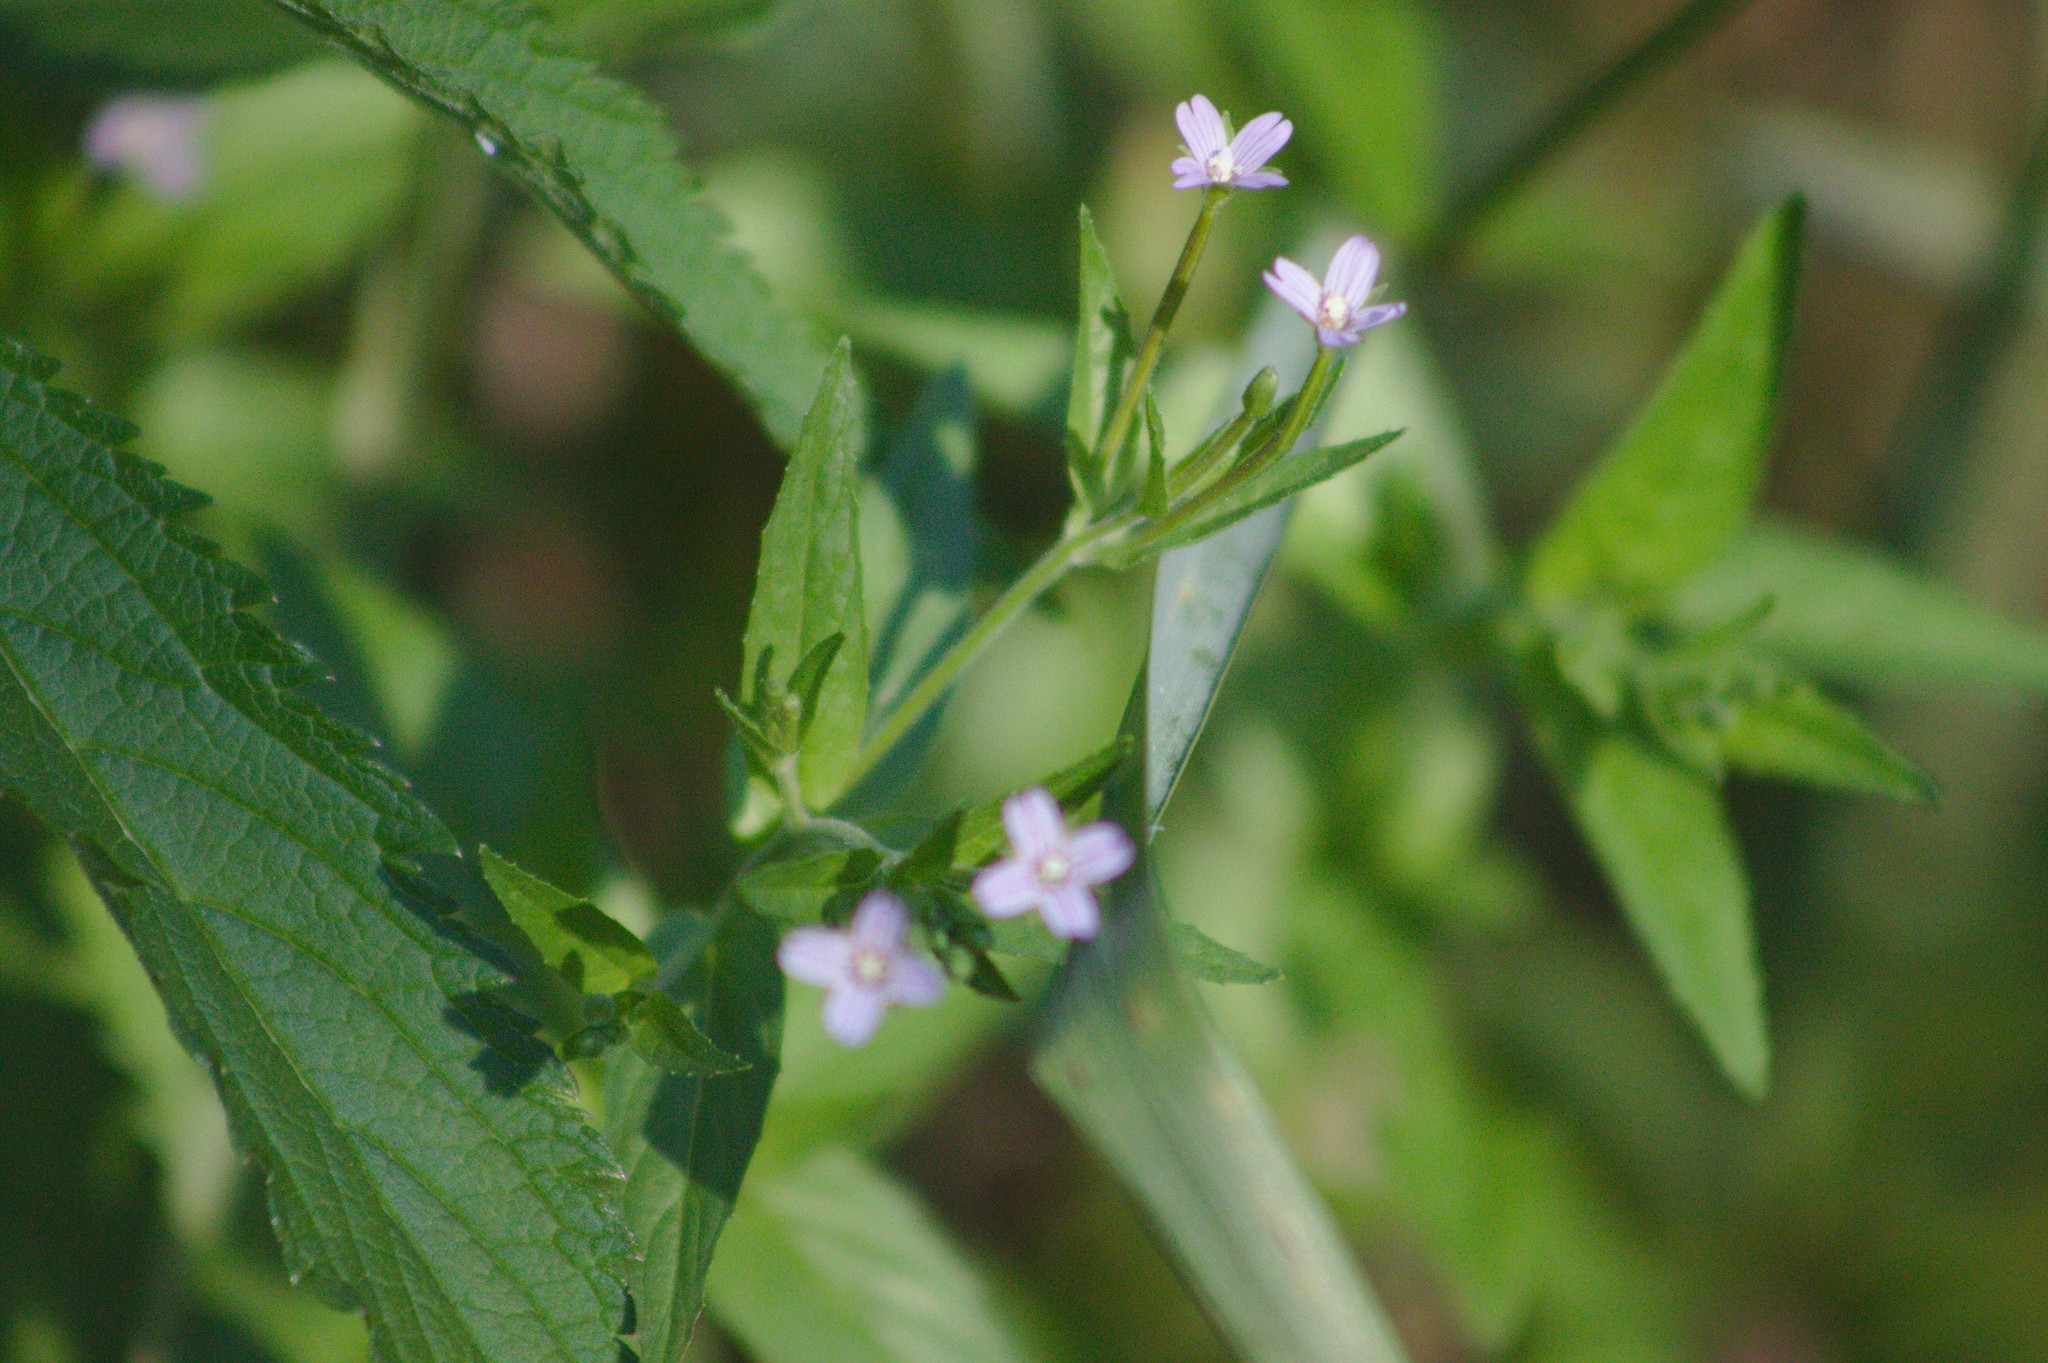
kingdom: Plantae
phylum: Tracheophyta
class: Magnoliopsida
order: Myrtales
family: Onagraceae
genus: Epilobium
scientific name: Epilobium ciliatum
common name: American willowherb
